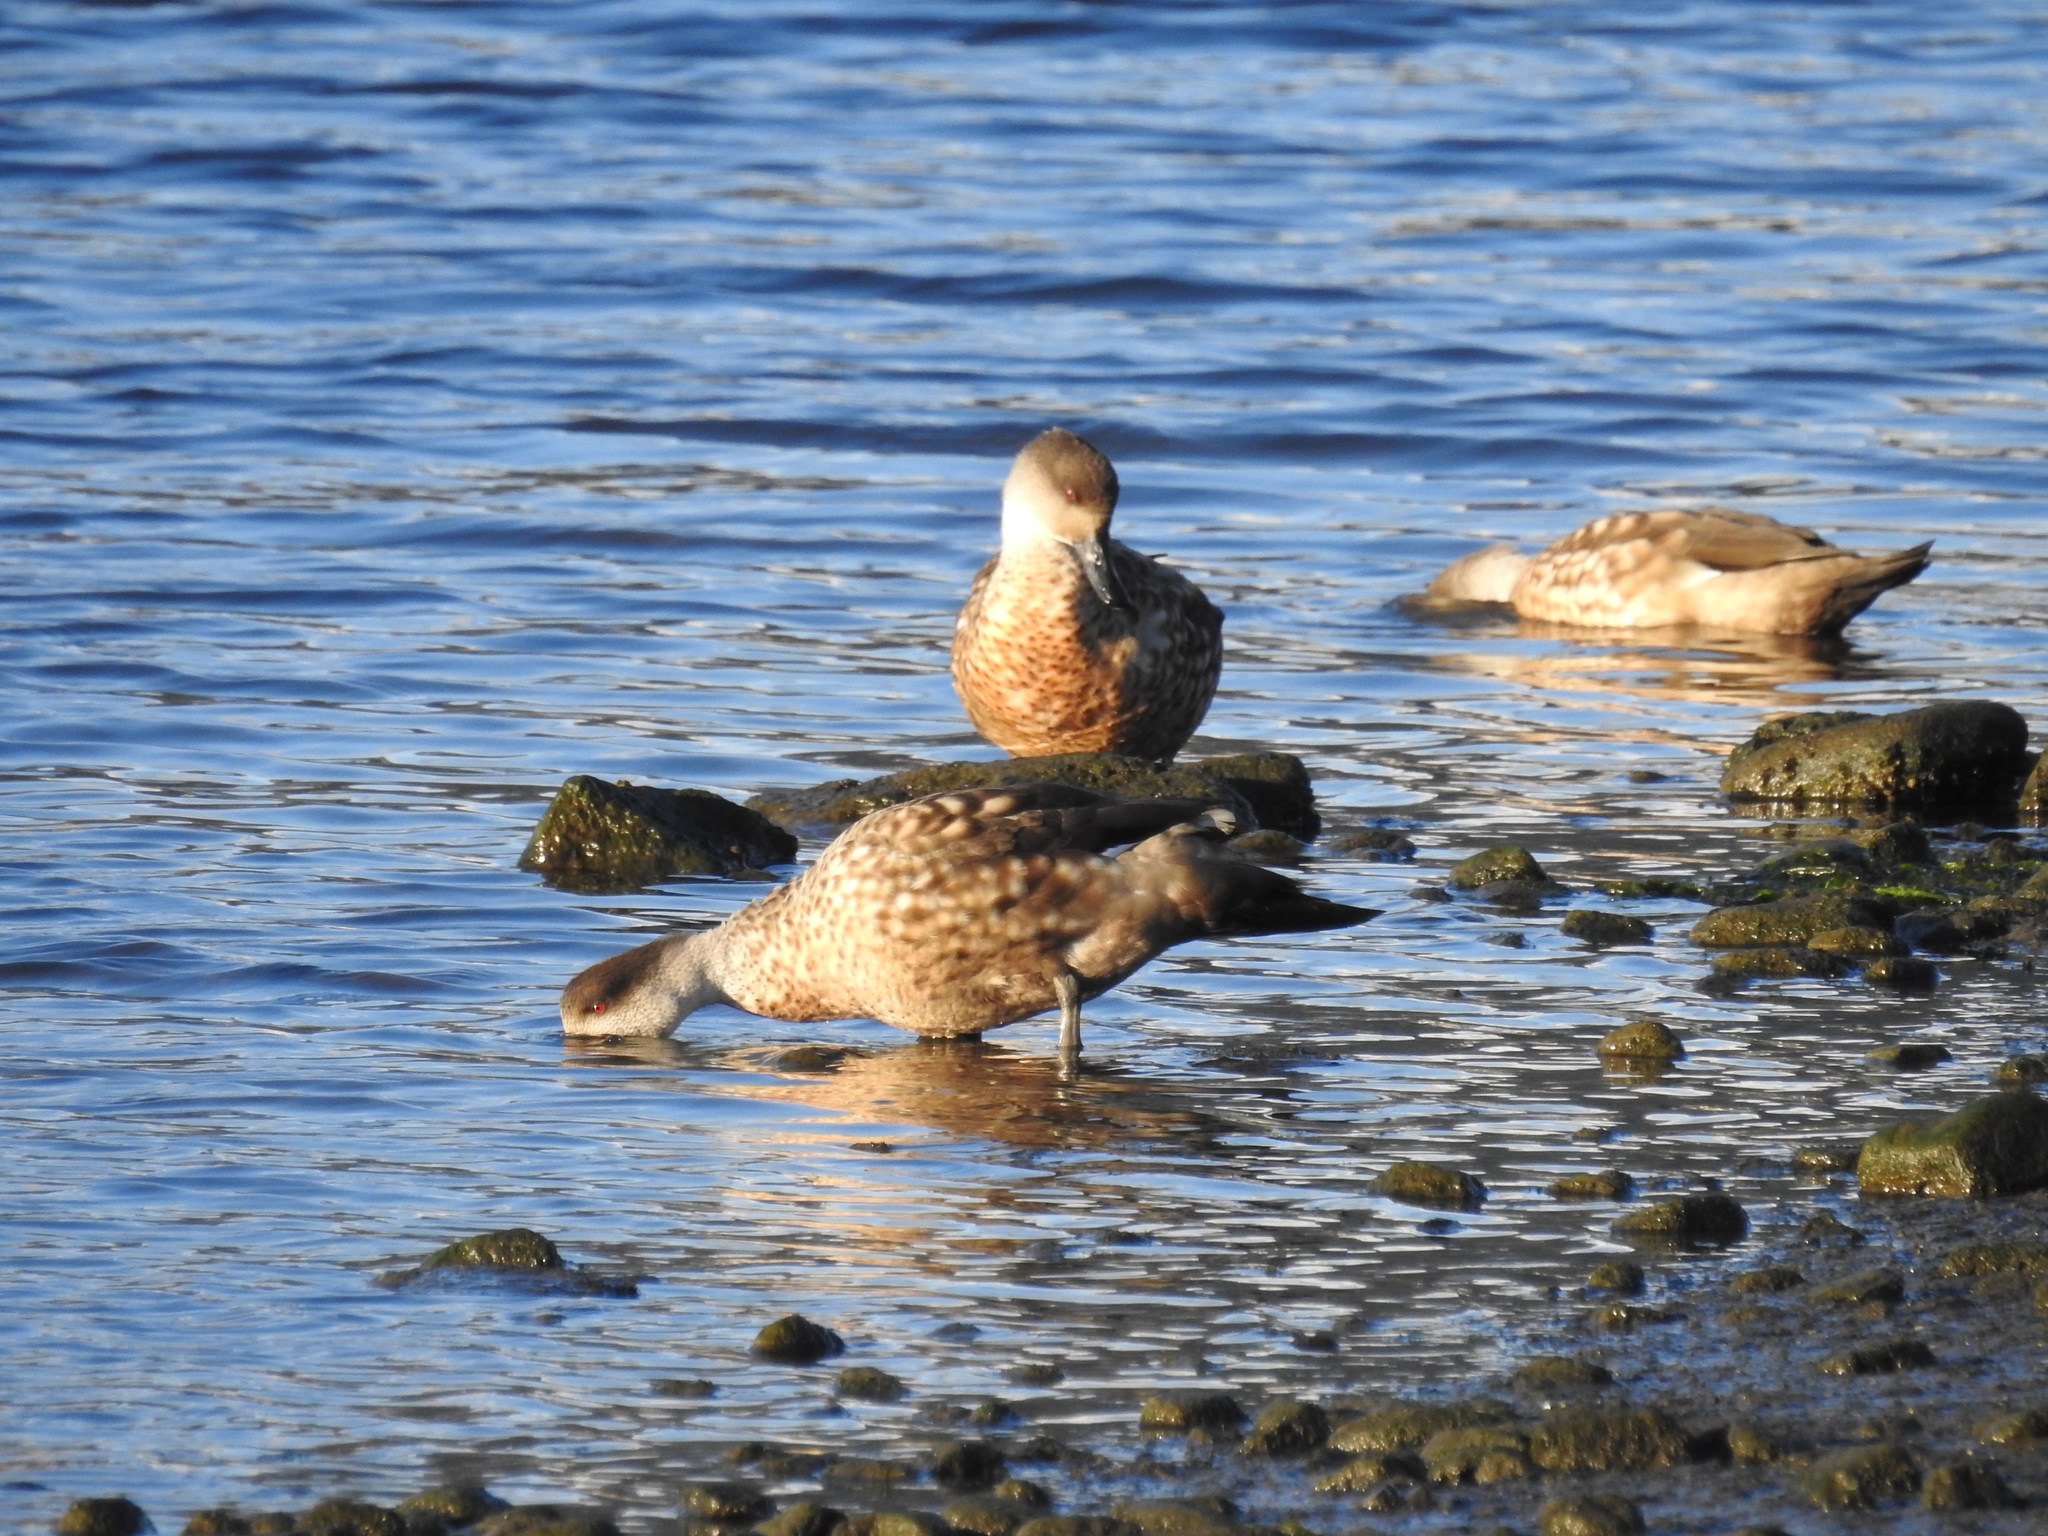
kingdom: Animalia
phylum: Chordata
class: Aves
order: Anseriformes
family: Anatidae
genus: Lophonetta
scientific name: Lophonetta specularioides
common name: Crested duck
